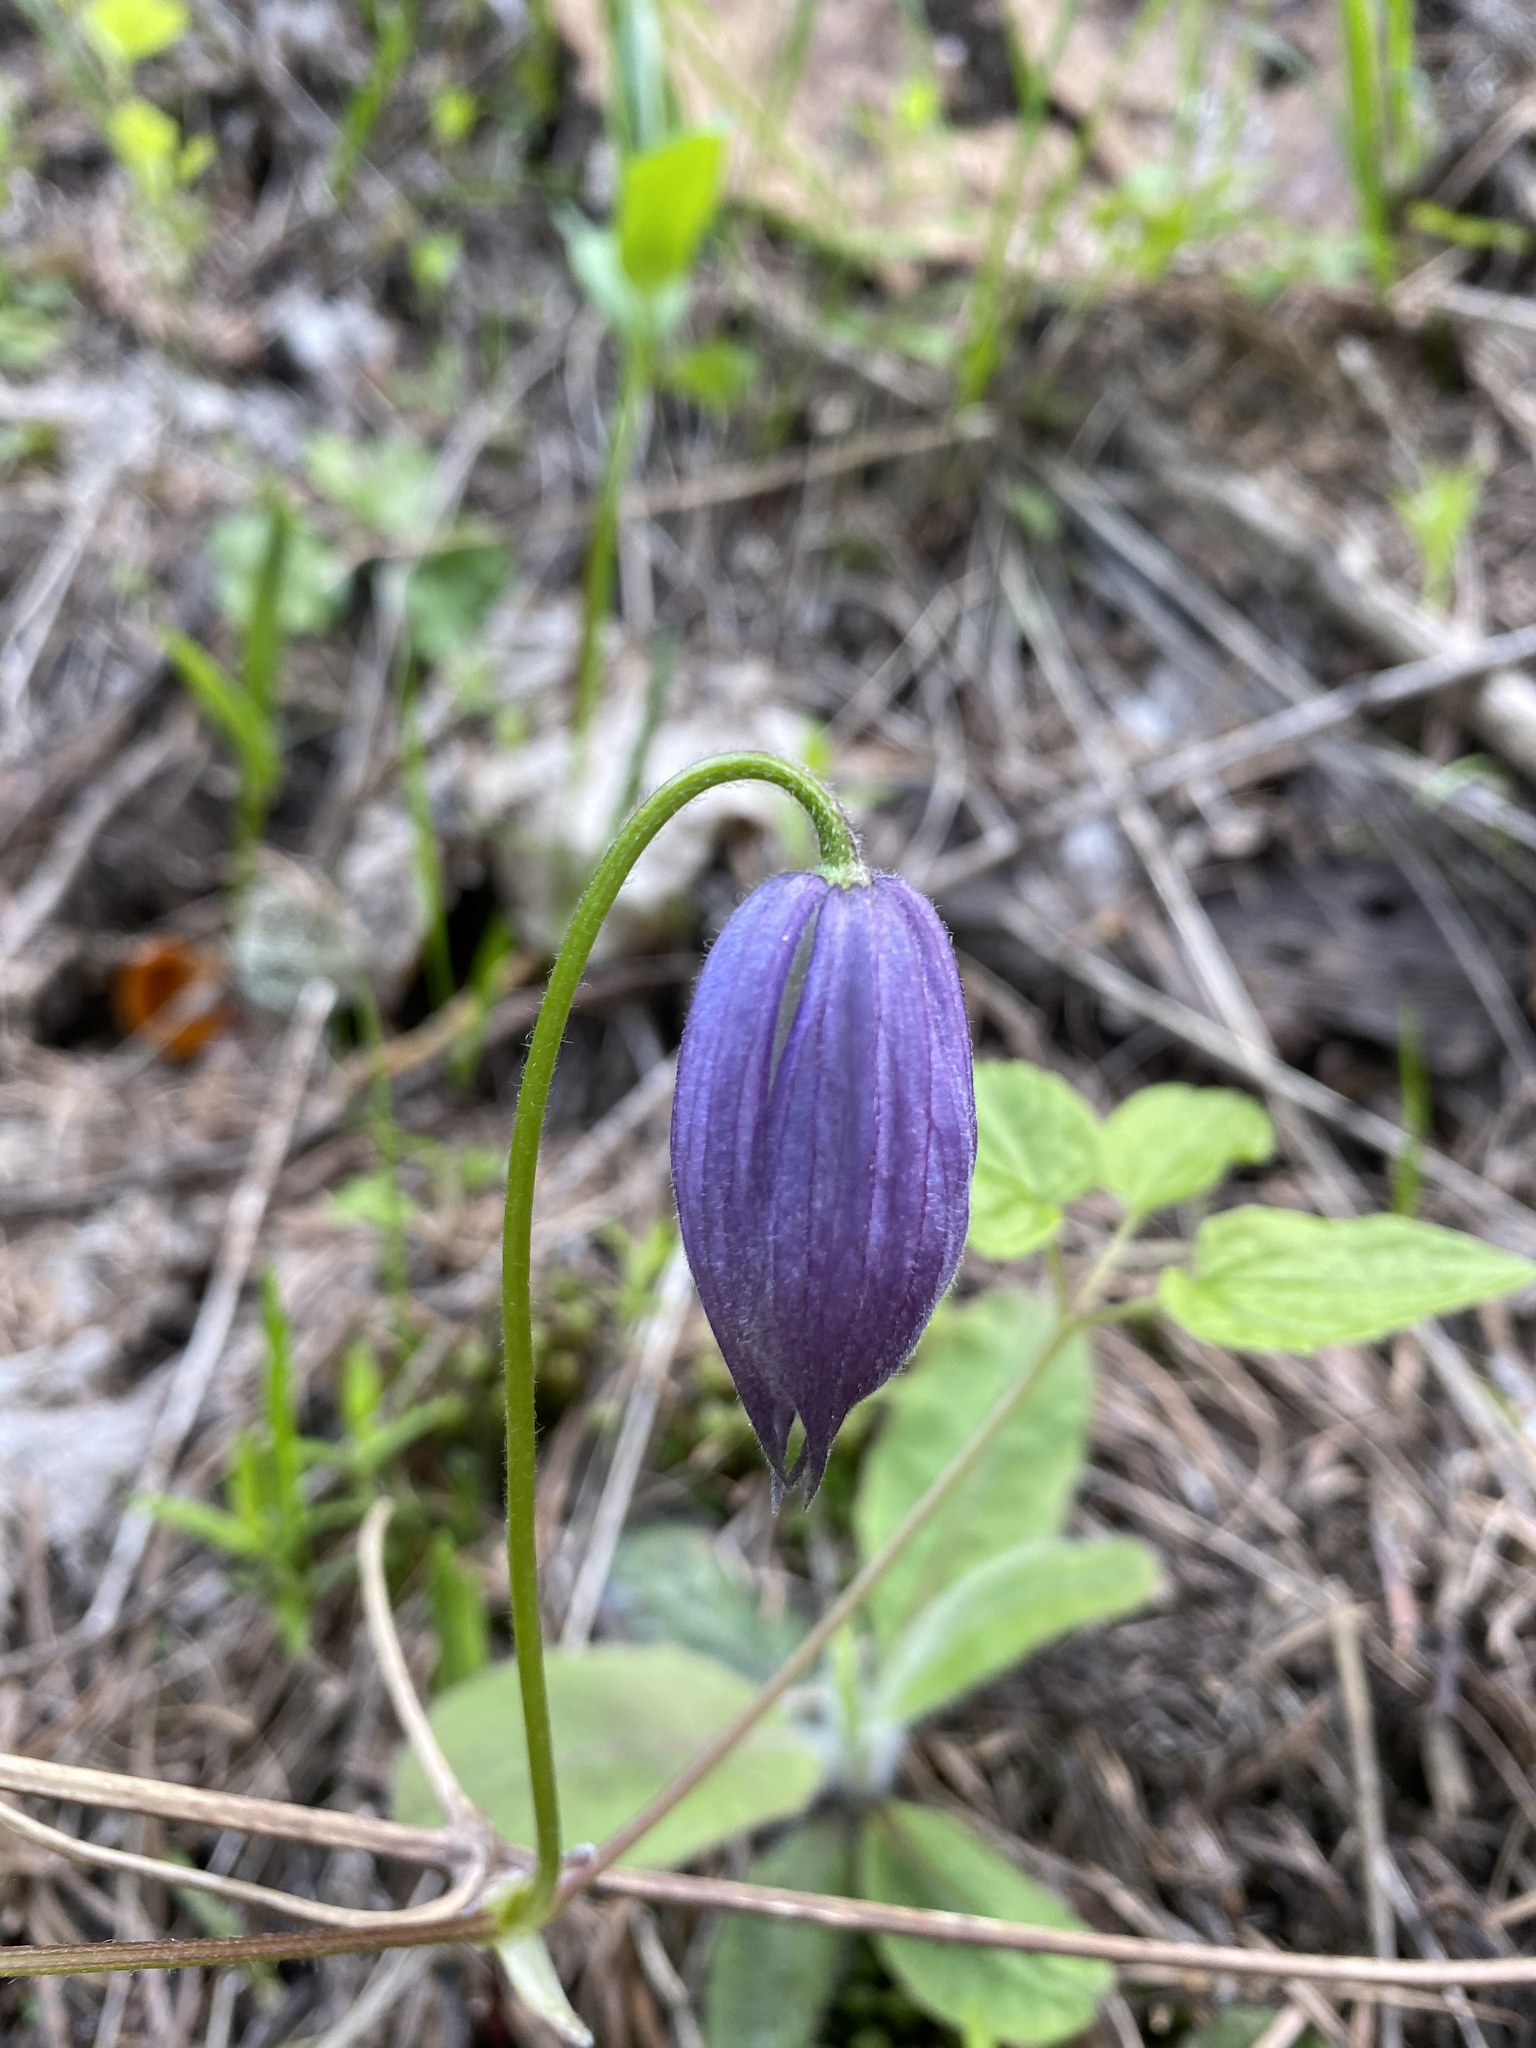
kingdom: Plantae
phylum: Tracheophyta
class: Magnoliopsida
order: Ranunculales
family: Ranunculaceae
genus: Clematis
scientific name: Clematis occidentalis
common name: Purple clematis
